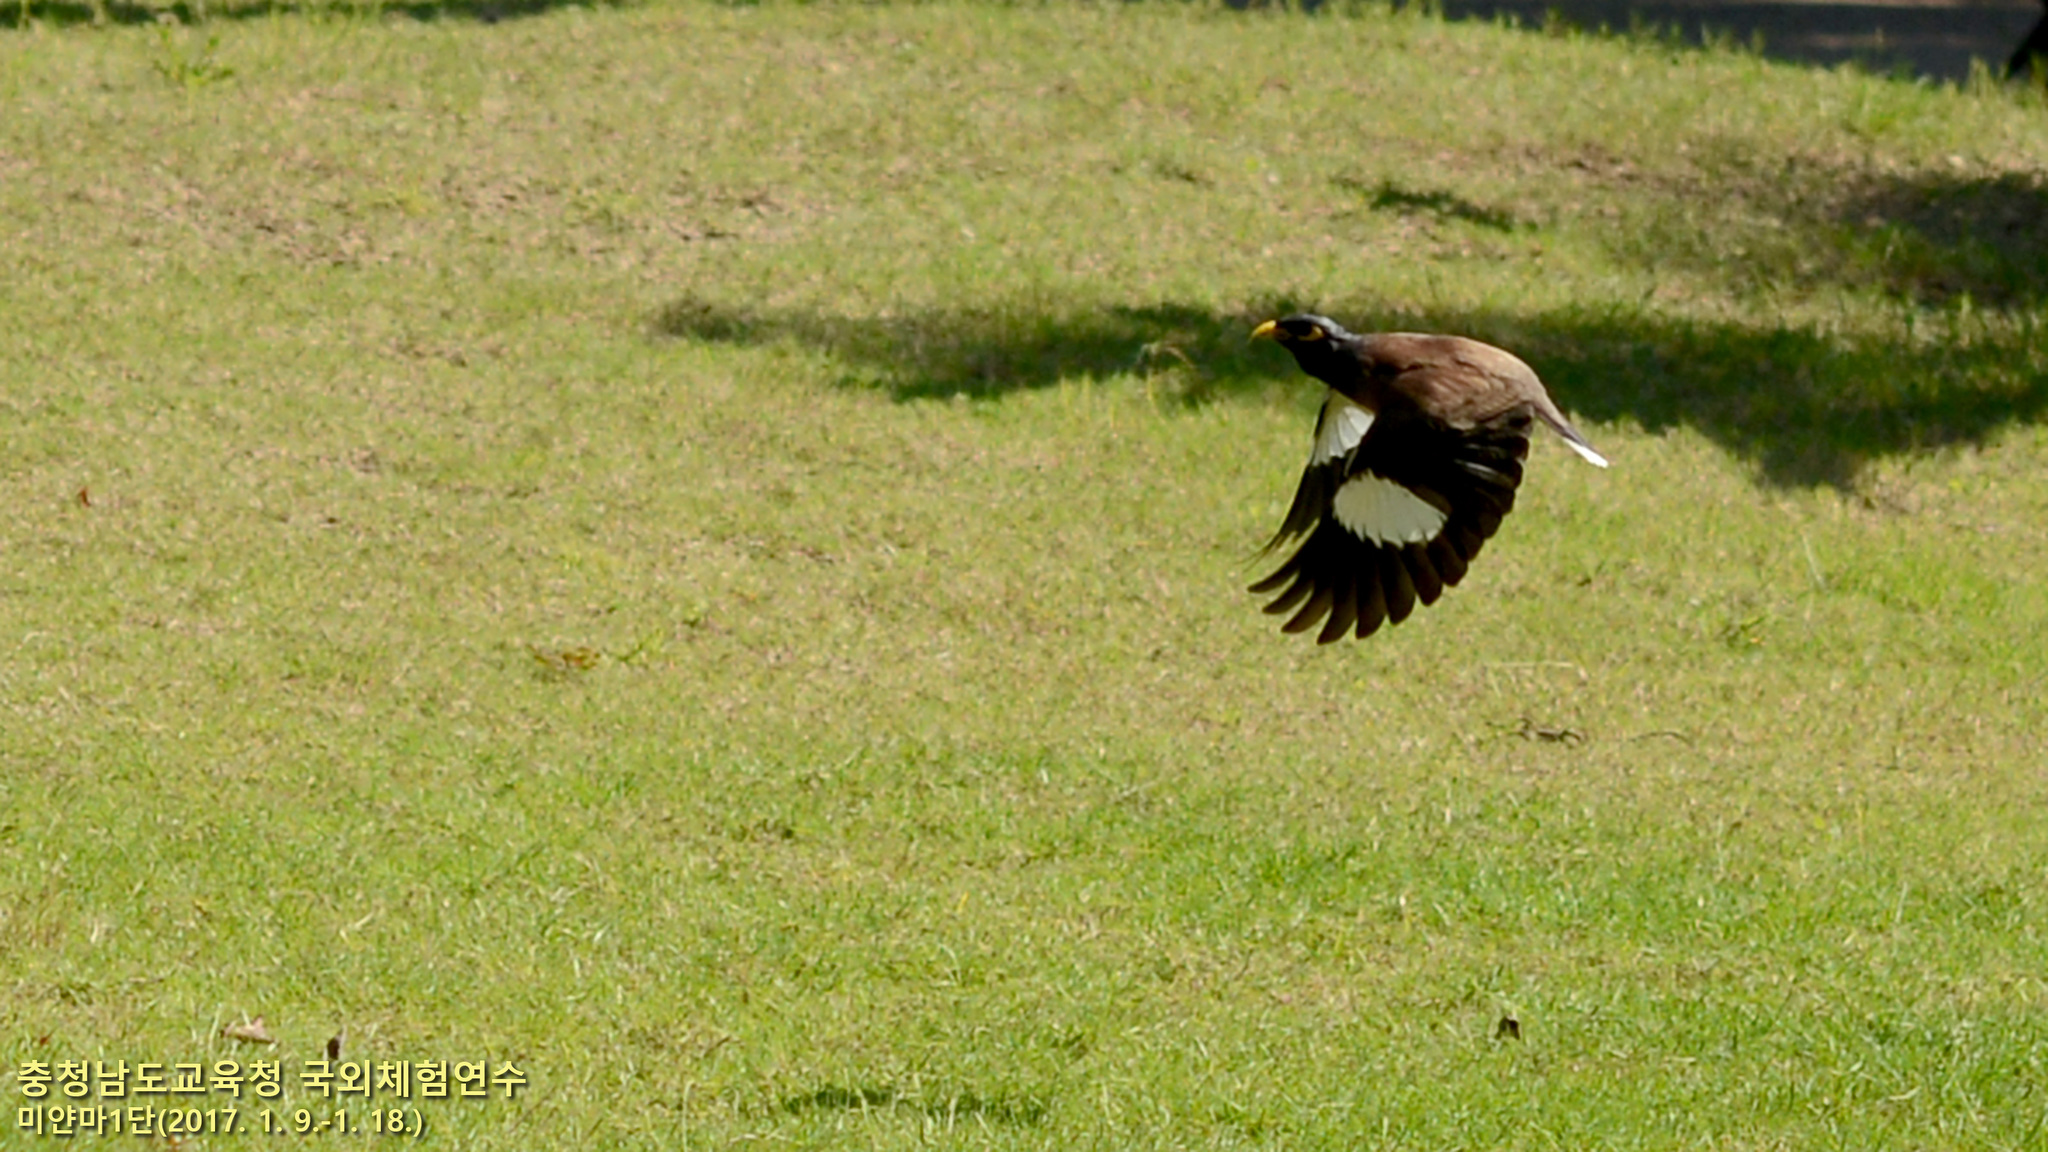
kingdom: Animalia
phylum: Chordata
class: Aves
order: Passeriformes
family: Sturnidae
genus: Acridotheres
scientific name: Acridotheres tristis
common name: Common myna
